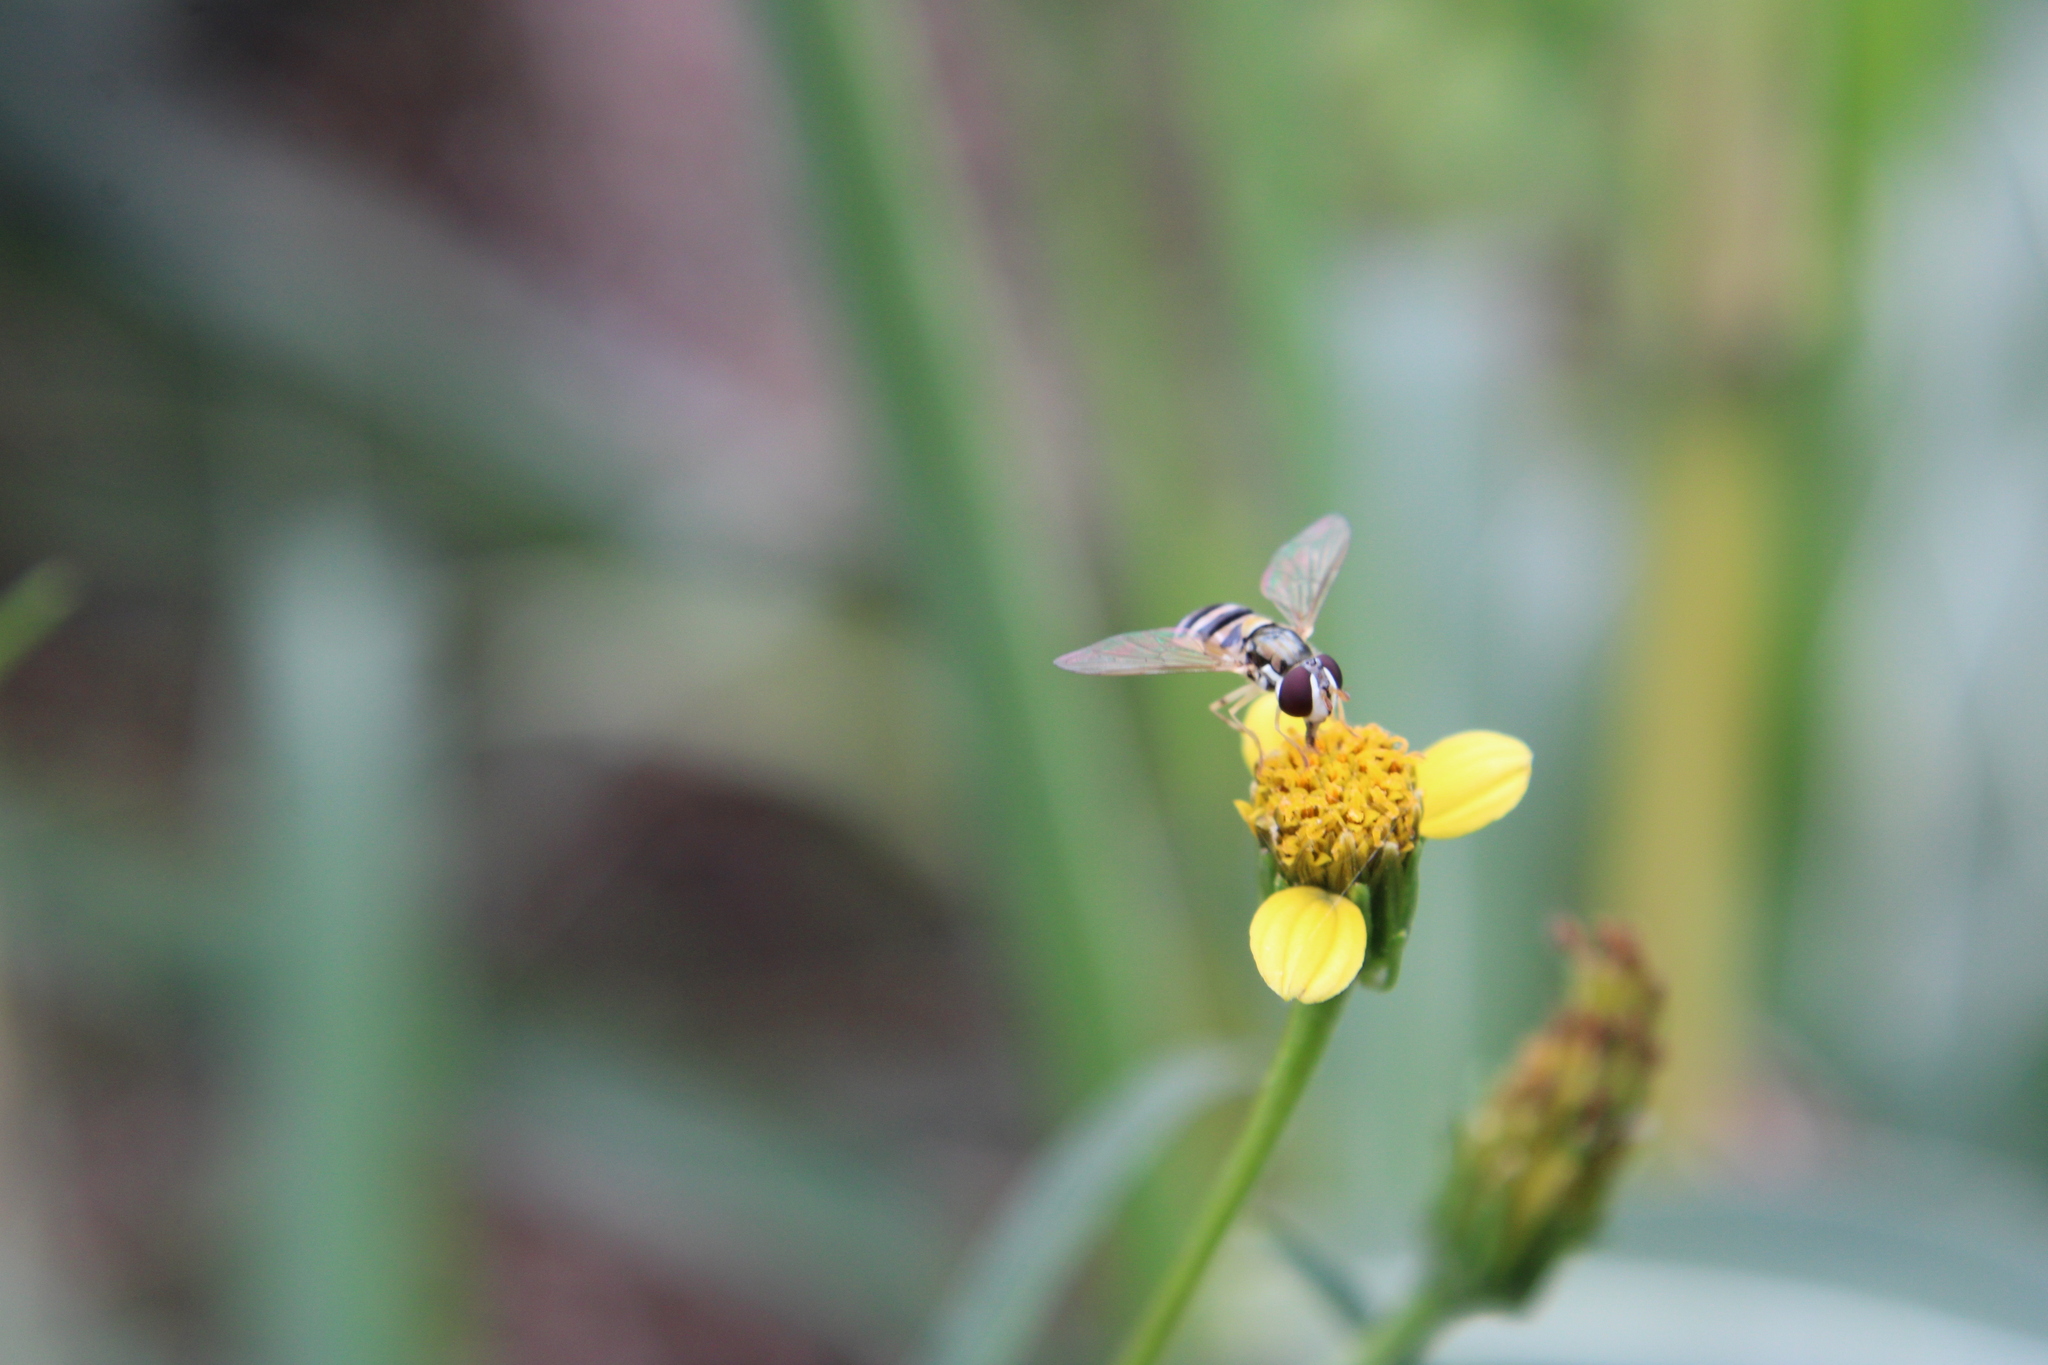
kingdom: Plantae
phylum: Tracheophyta
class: Magnoliopsida
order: Asterales
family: Asteraceae
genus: Bidens
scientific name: Bidens subalternans
